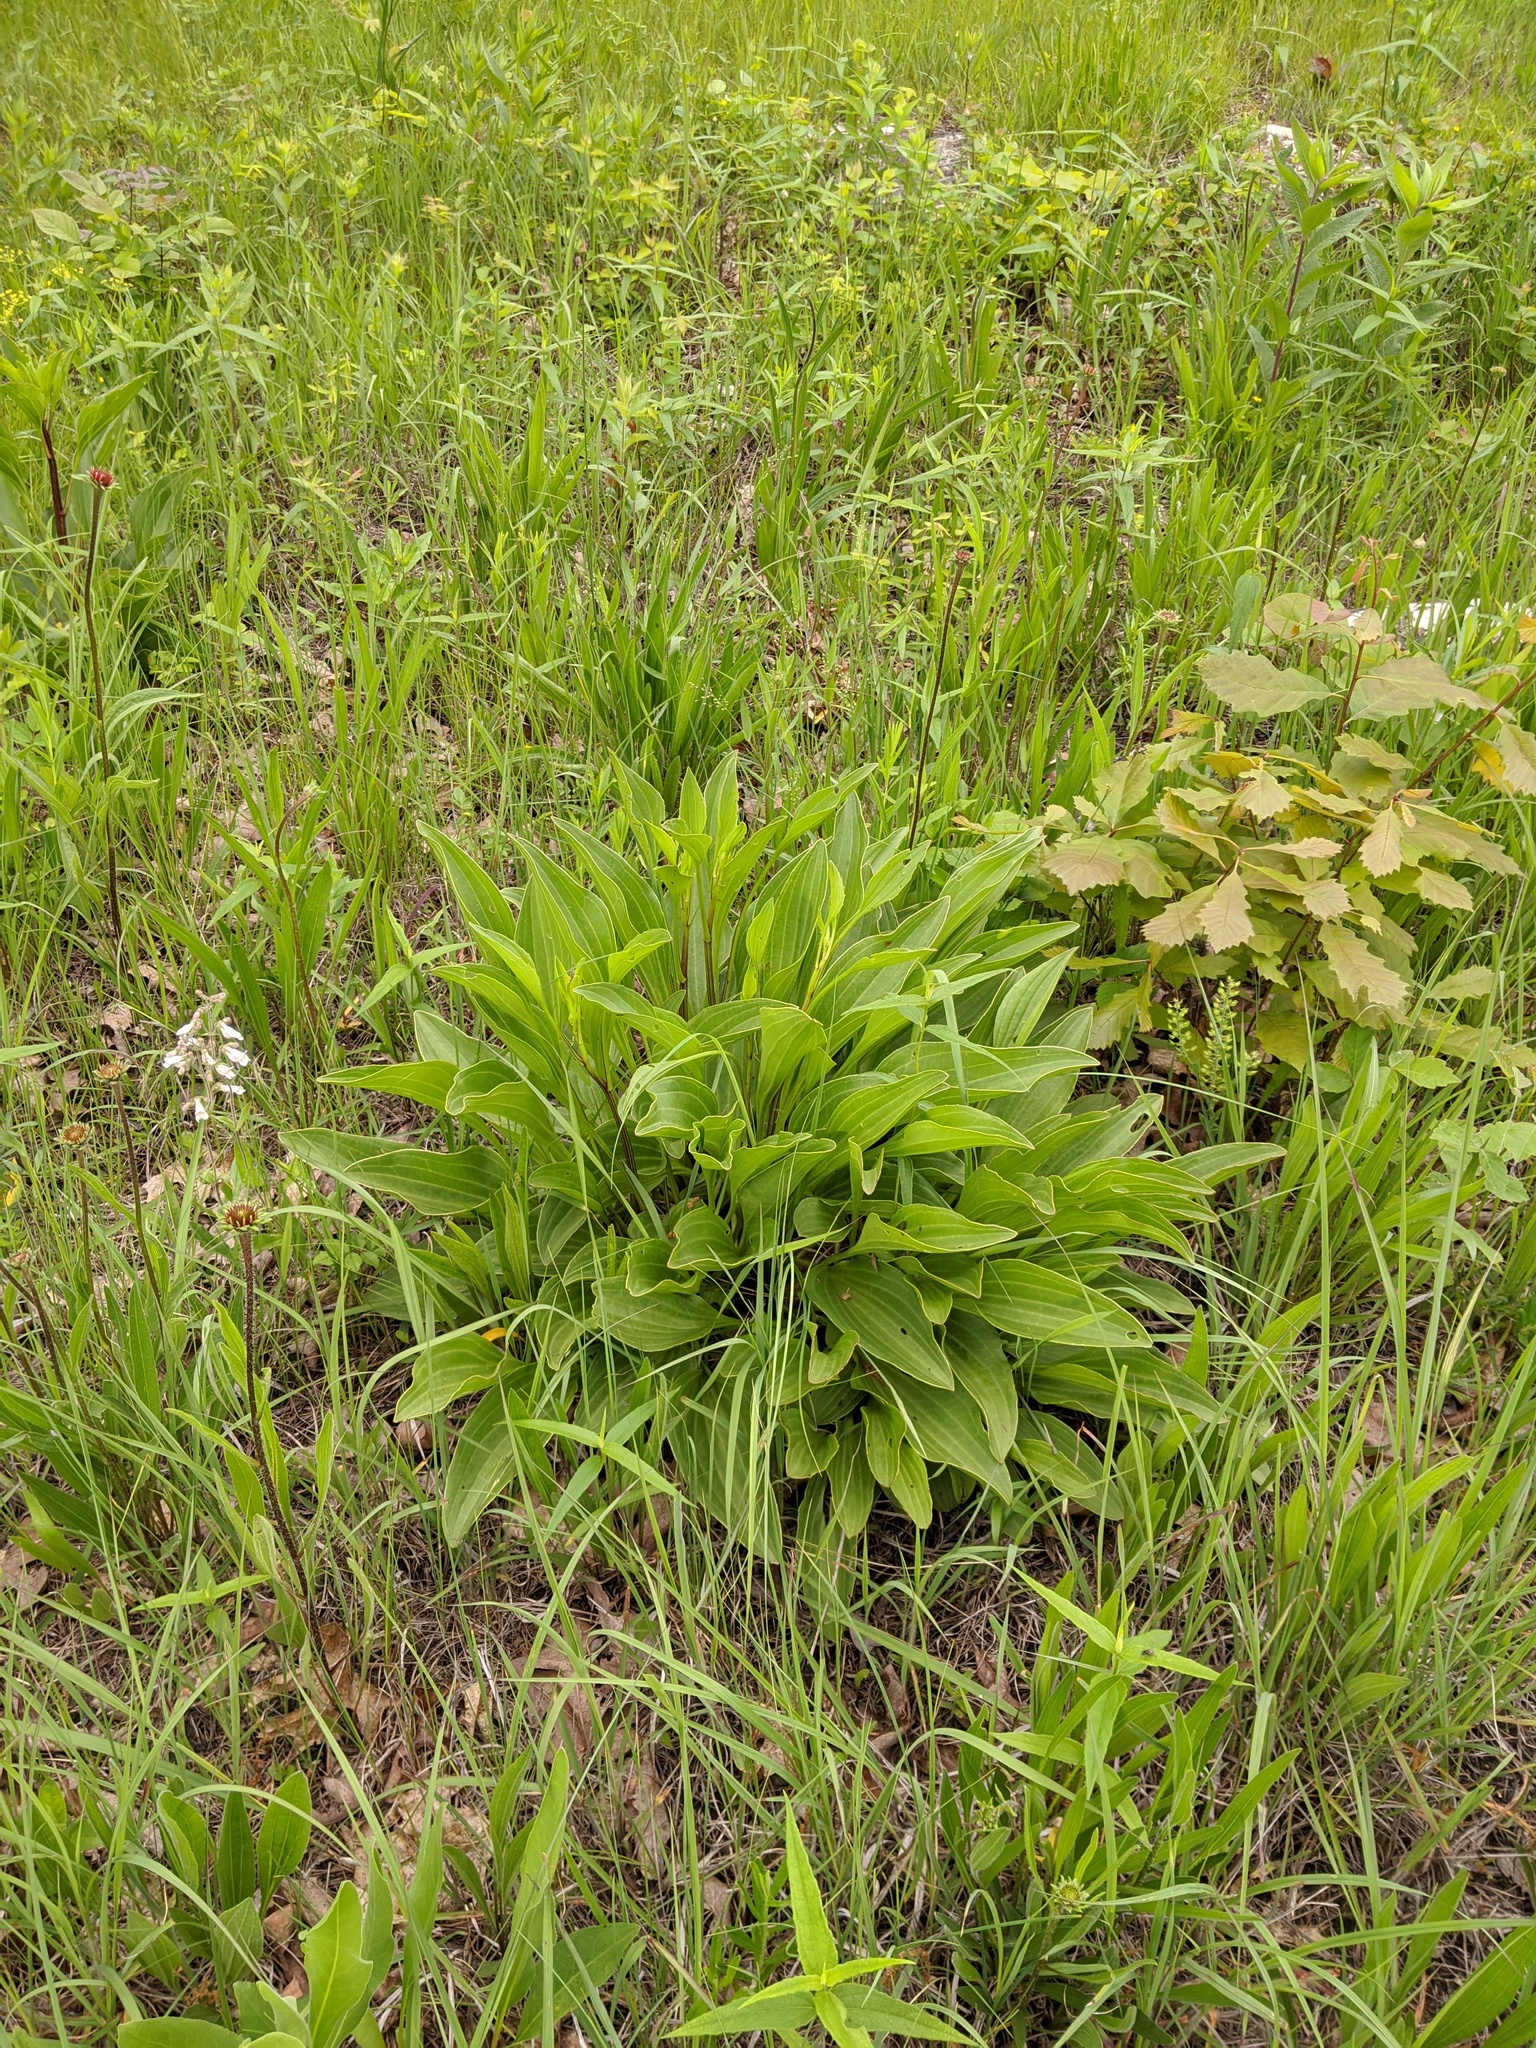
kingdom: Plantae
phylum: Tracheophyta
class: Magnoliopsida
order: Asterales
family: Asteraceae
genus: Arnoglossum
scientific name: Arnoglossum plantagineum
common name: Groove-stemmed indian-plantain
